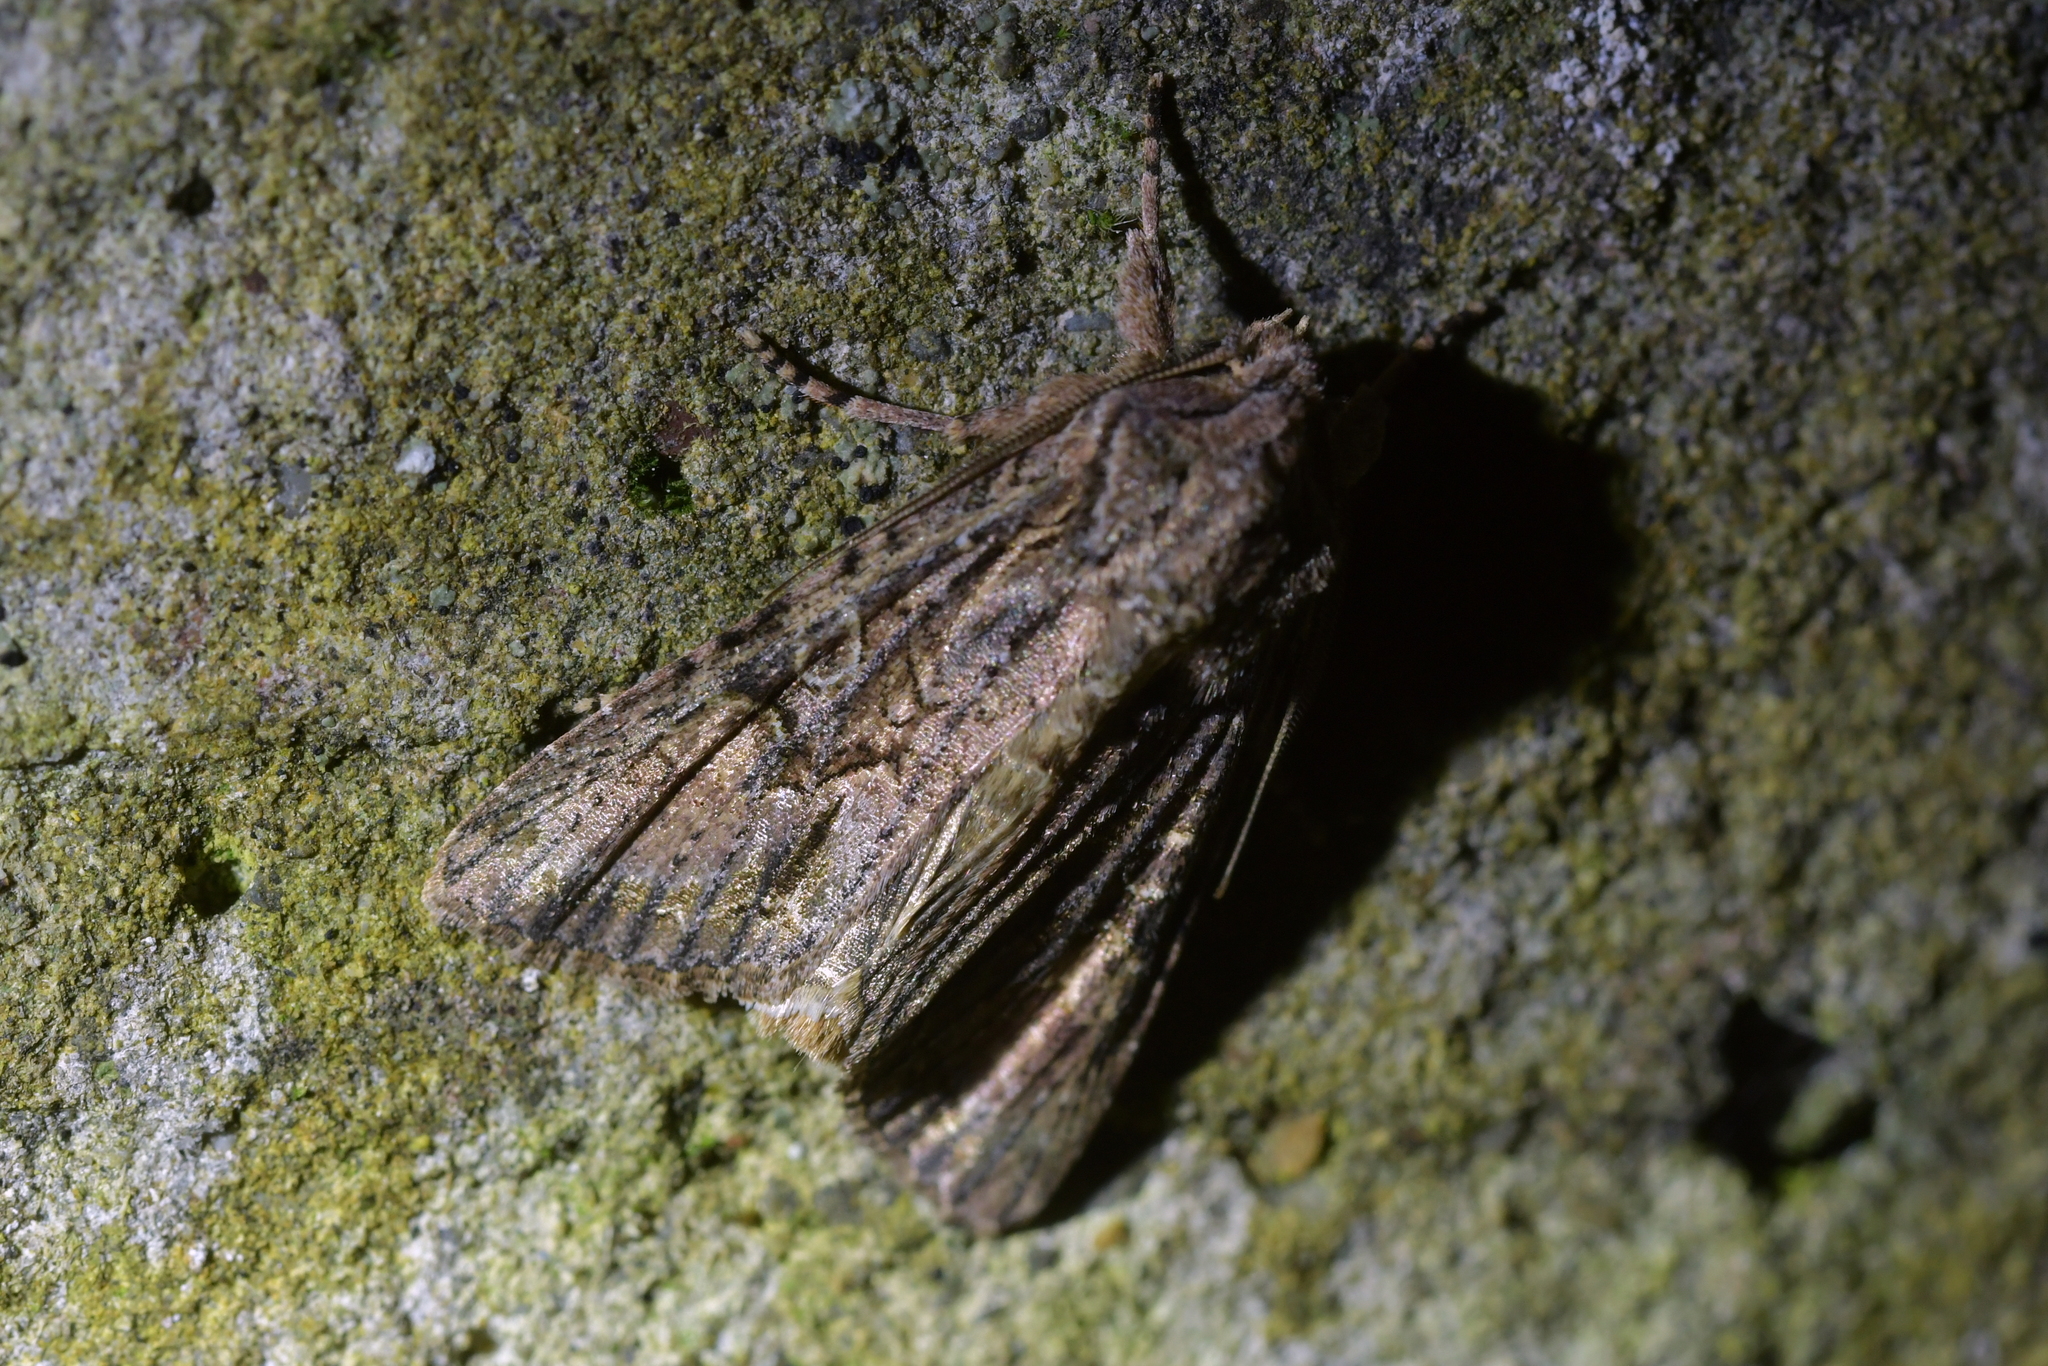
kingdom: Animalia
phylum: Arthropoda
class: Insecta
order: Lepidoptera
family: Noctuidae
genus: Ichneutica
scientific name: Ichneutica mutans
